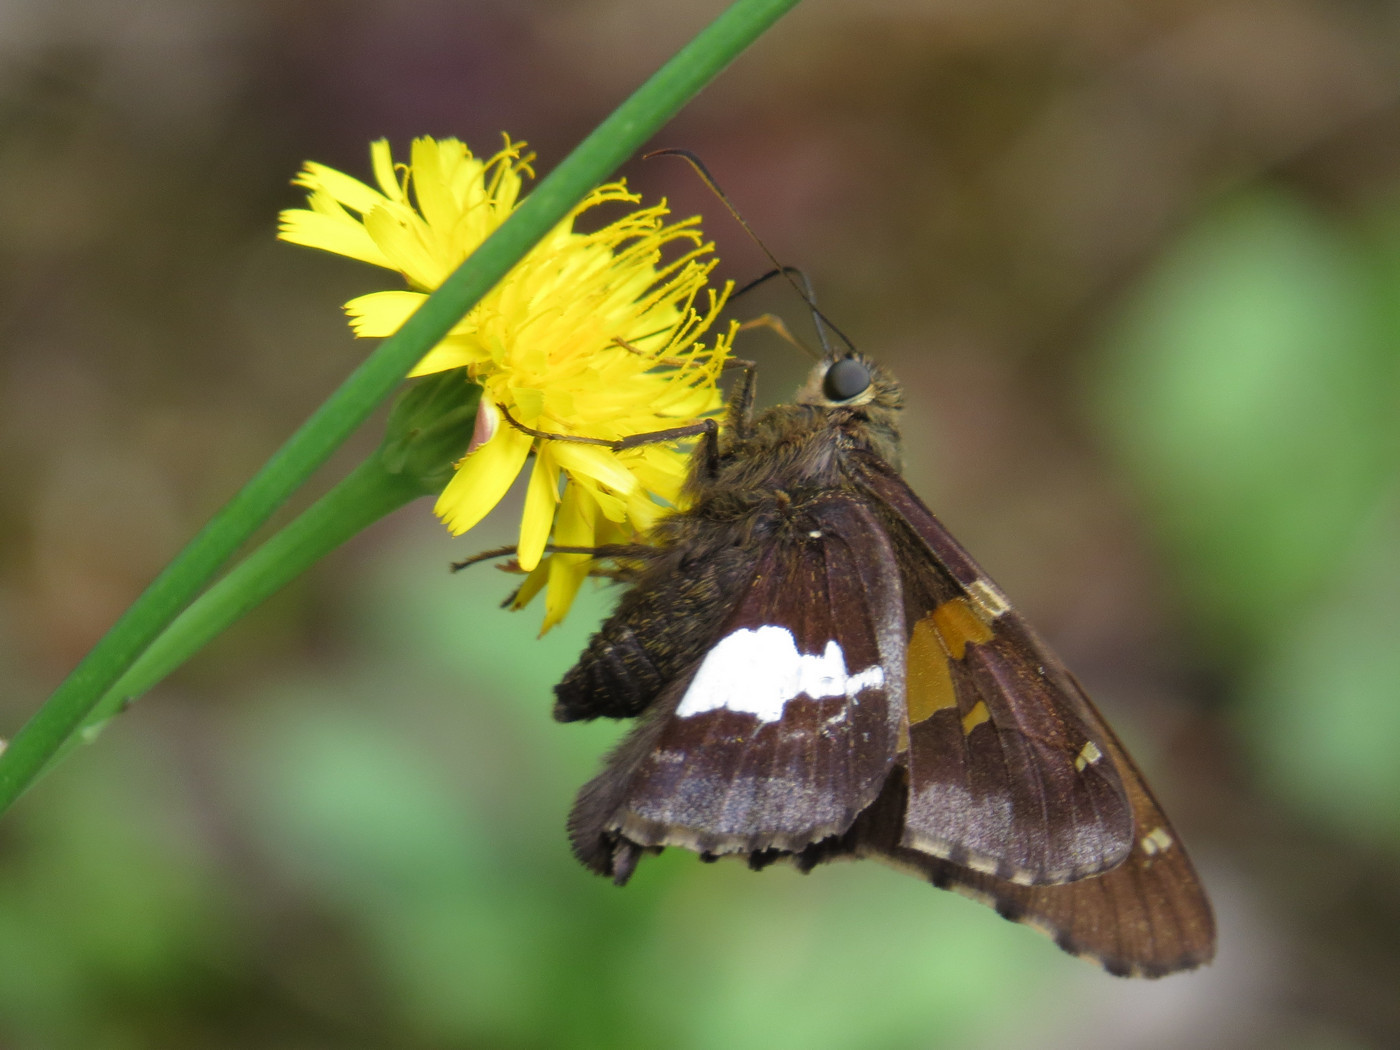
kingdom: Animalia
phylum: Arthropoda
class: Insecta
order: Lepidoptera
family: Hesperiidae
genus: Epargyreus
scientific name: Epargyreus clarus
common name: Silver-spotted skipper
